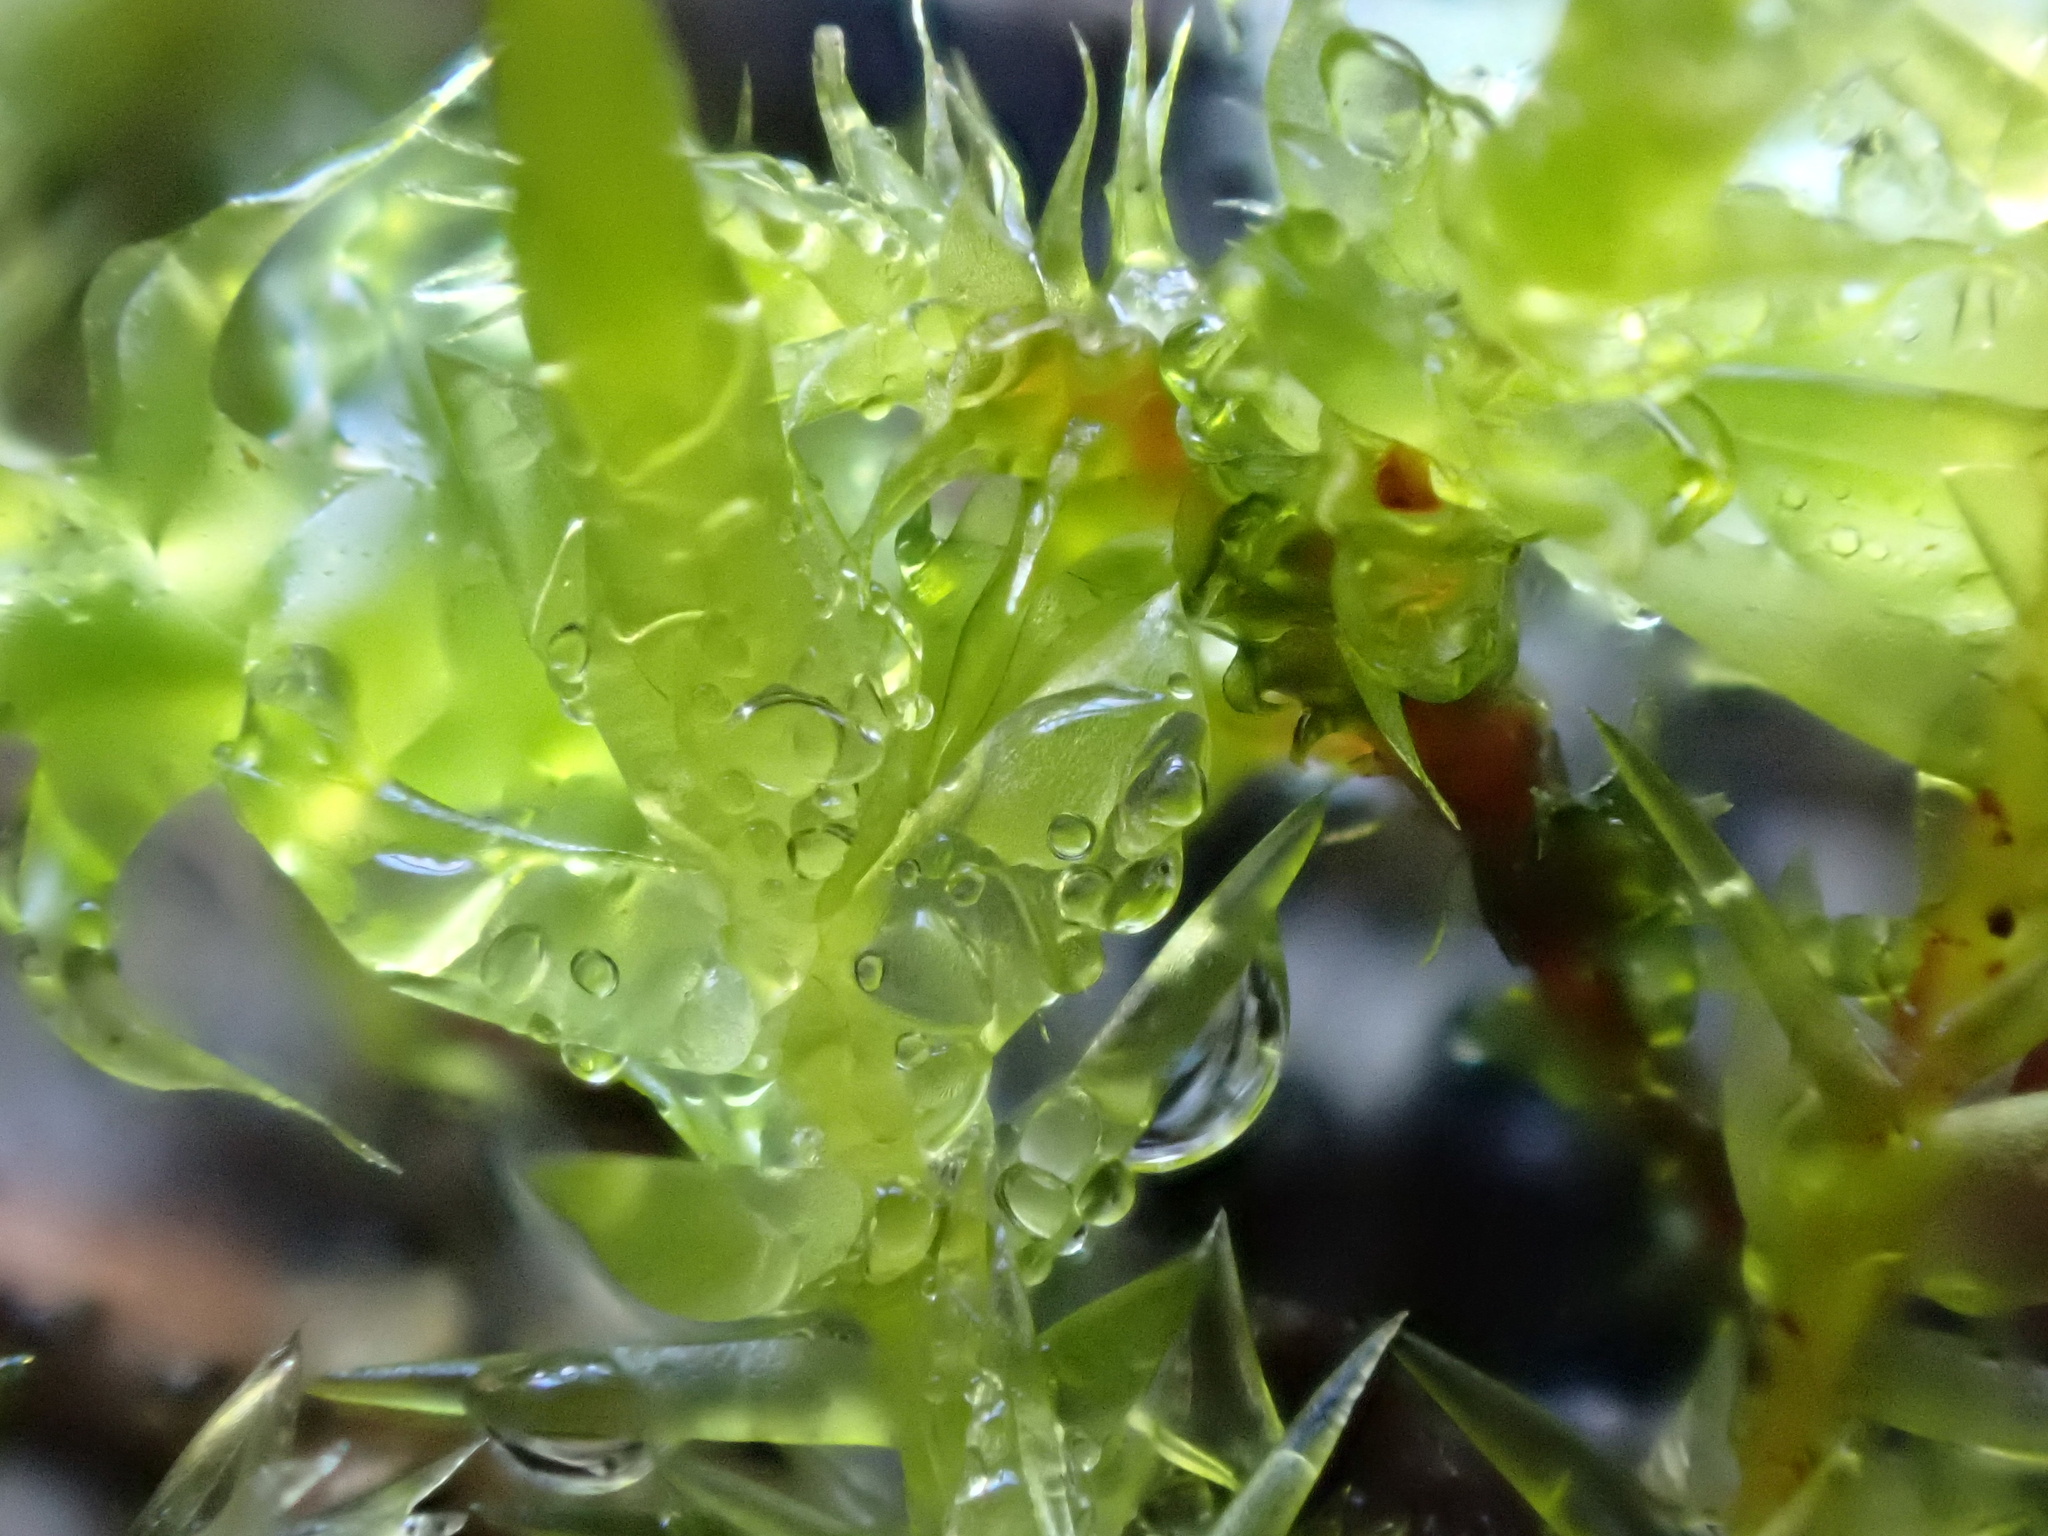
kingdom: Plantae
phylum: Bryophyta
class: Bryopsida
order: Hypnales
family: Pylaisiaceae
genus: Calliergonella
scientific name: Calliergonella cuspidata
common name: Common large wetland moss
